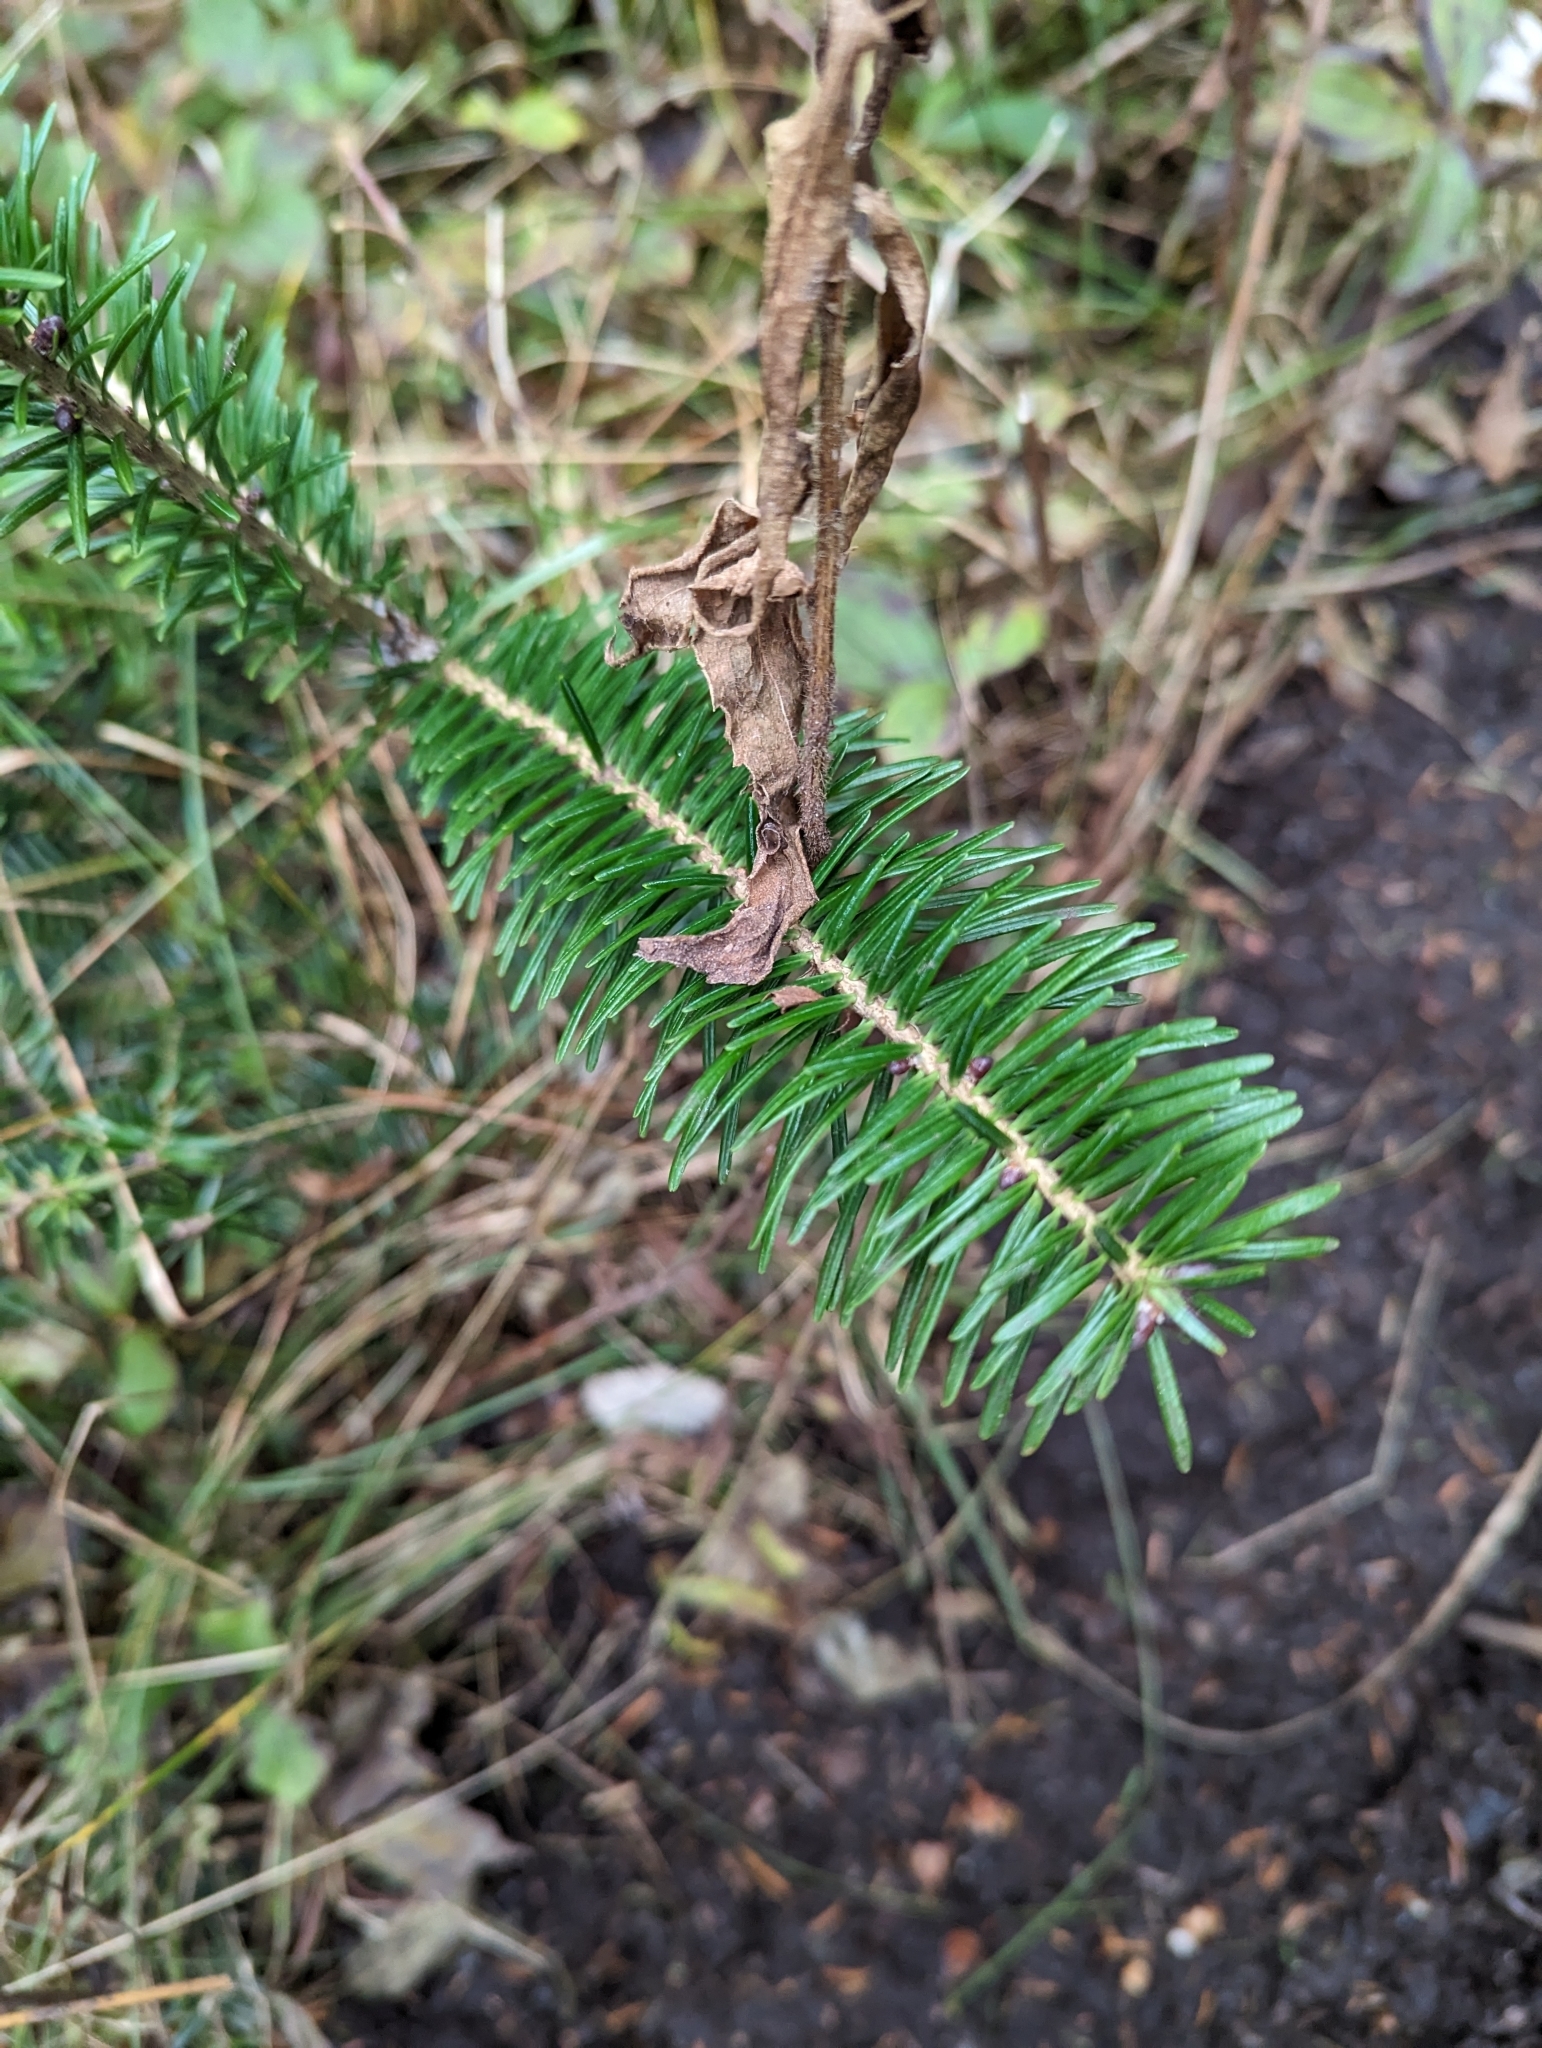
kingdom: Plantae
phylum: Tracheophyta
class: Pinopsida
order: Pinales
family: Pinaceae
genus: Abies
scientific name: Abies balsamea
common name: Balsam fir
